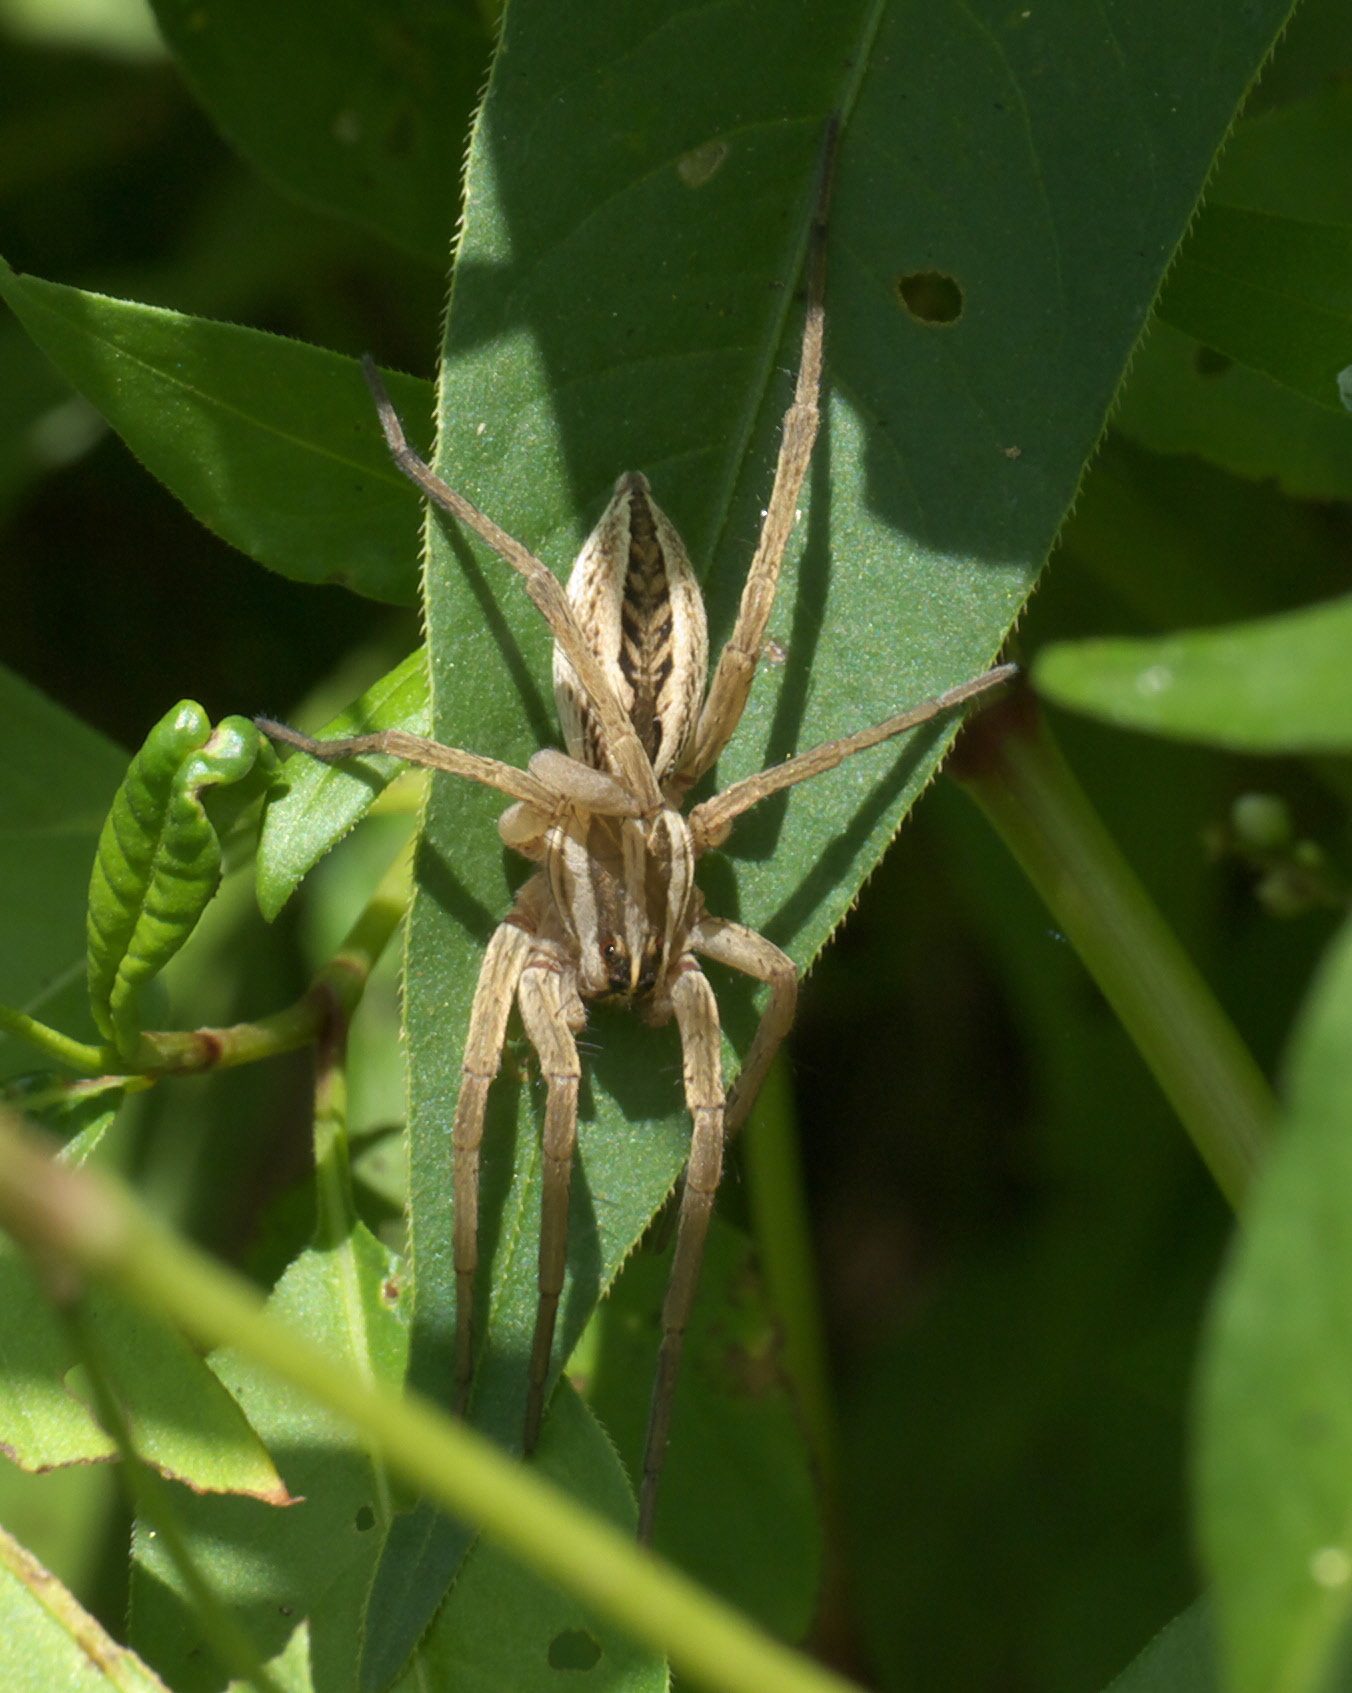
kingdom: Animalia
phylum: Arthropoda
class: Arachnida
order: Araneae
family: Lycosidae
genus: Rabidosa
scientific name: Rabidosa rabida
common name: Rabid wolf spider
